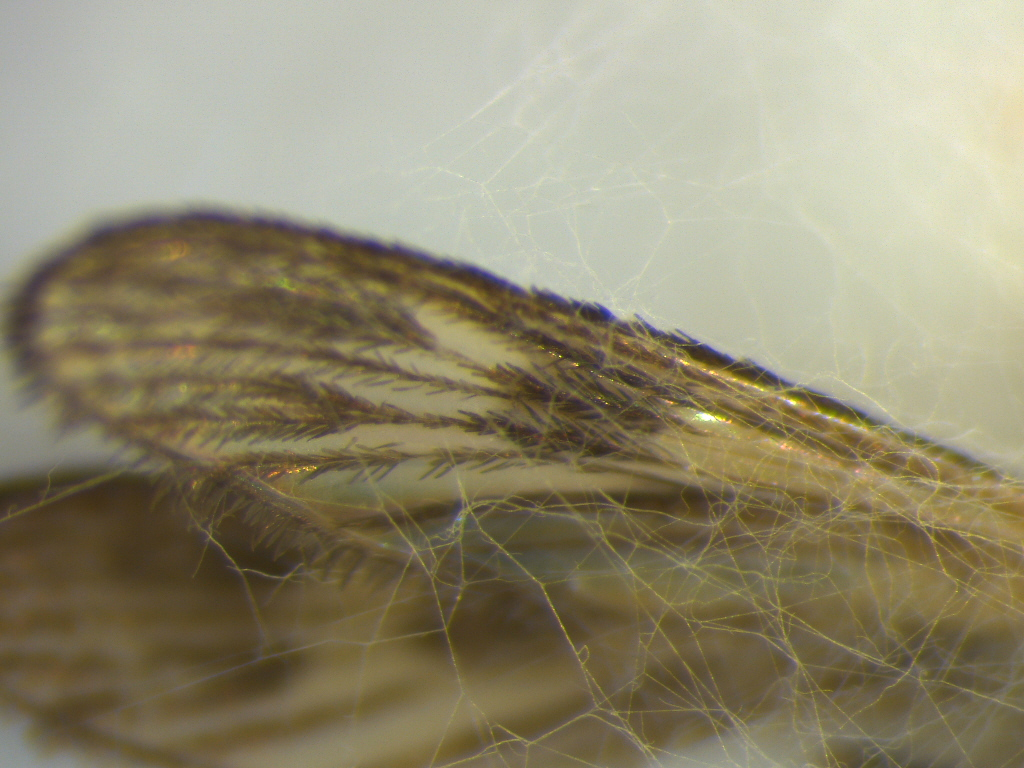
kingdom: Animalia
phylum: Arthropoda
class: Insecta
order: Diptera
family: Culicidae
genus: Culiseta
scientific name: Culiseta tonnoiri
